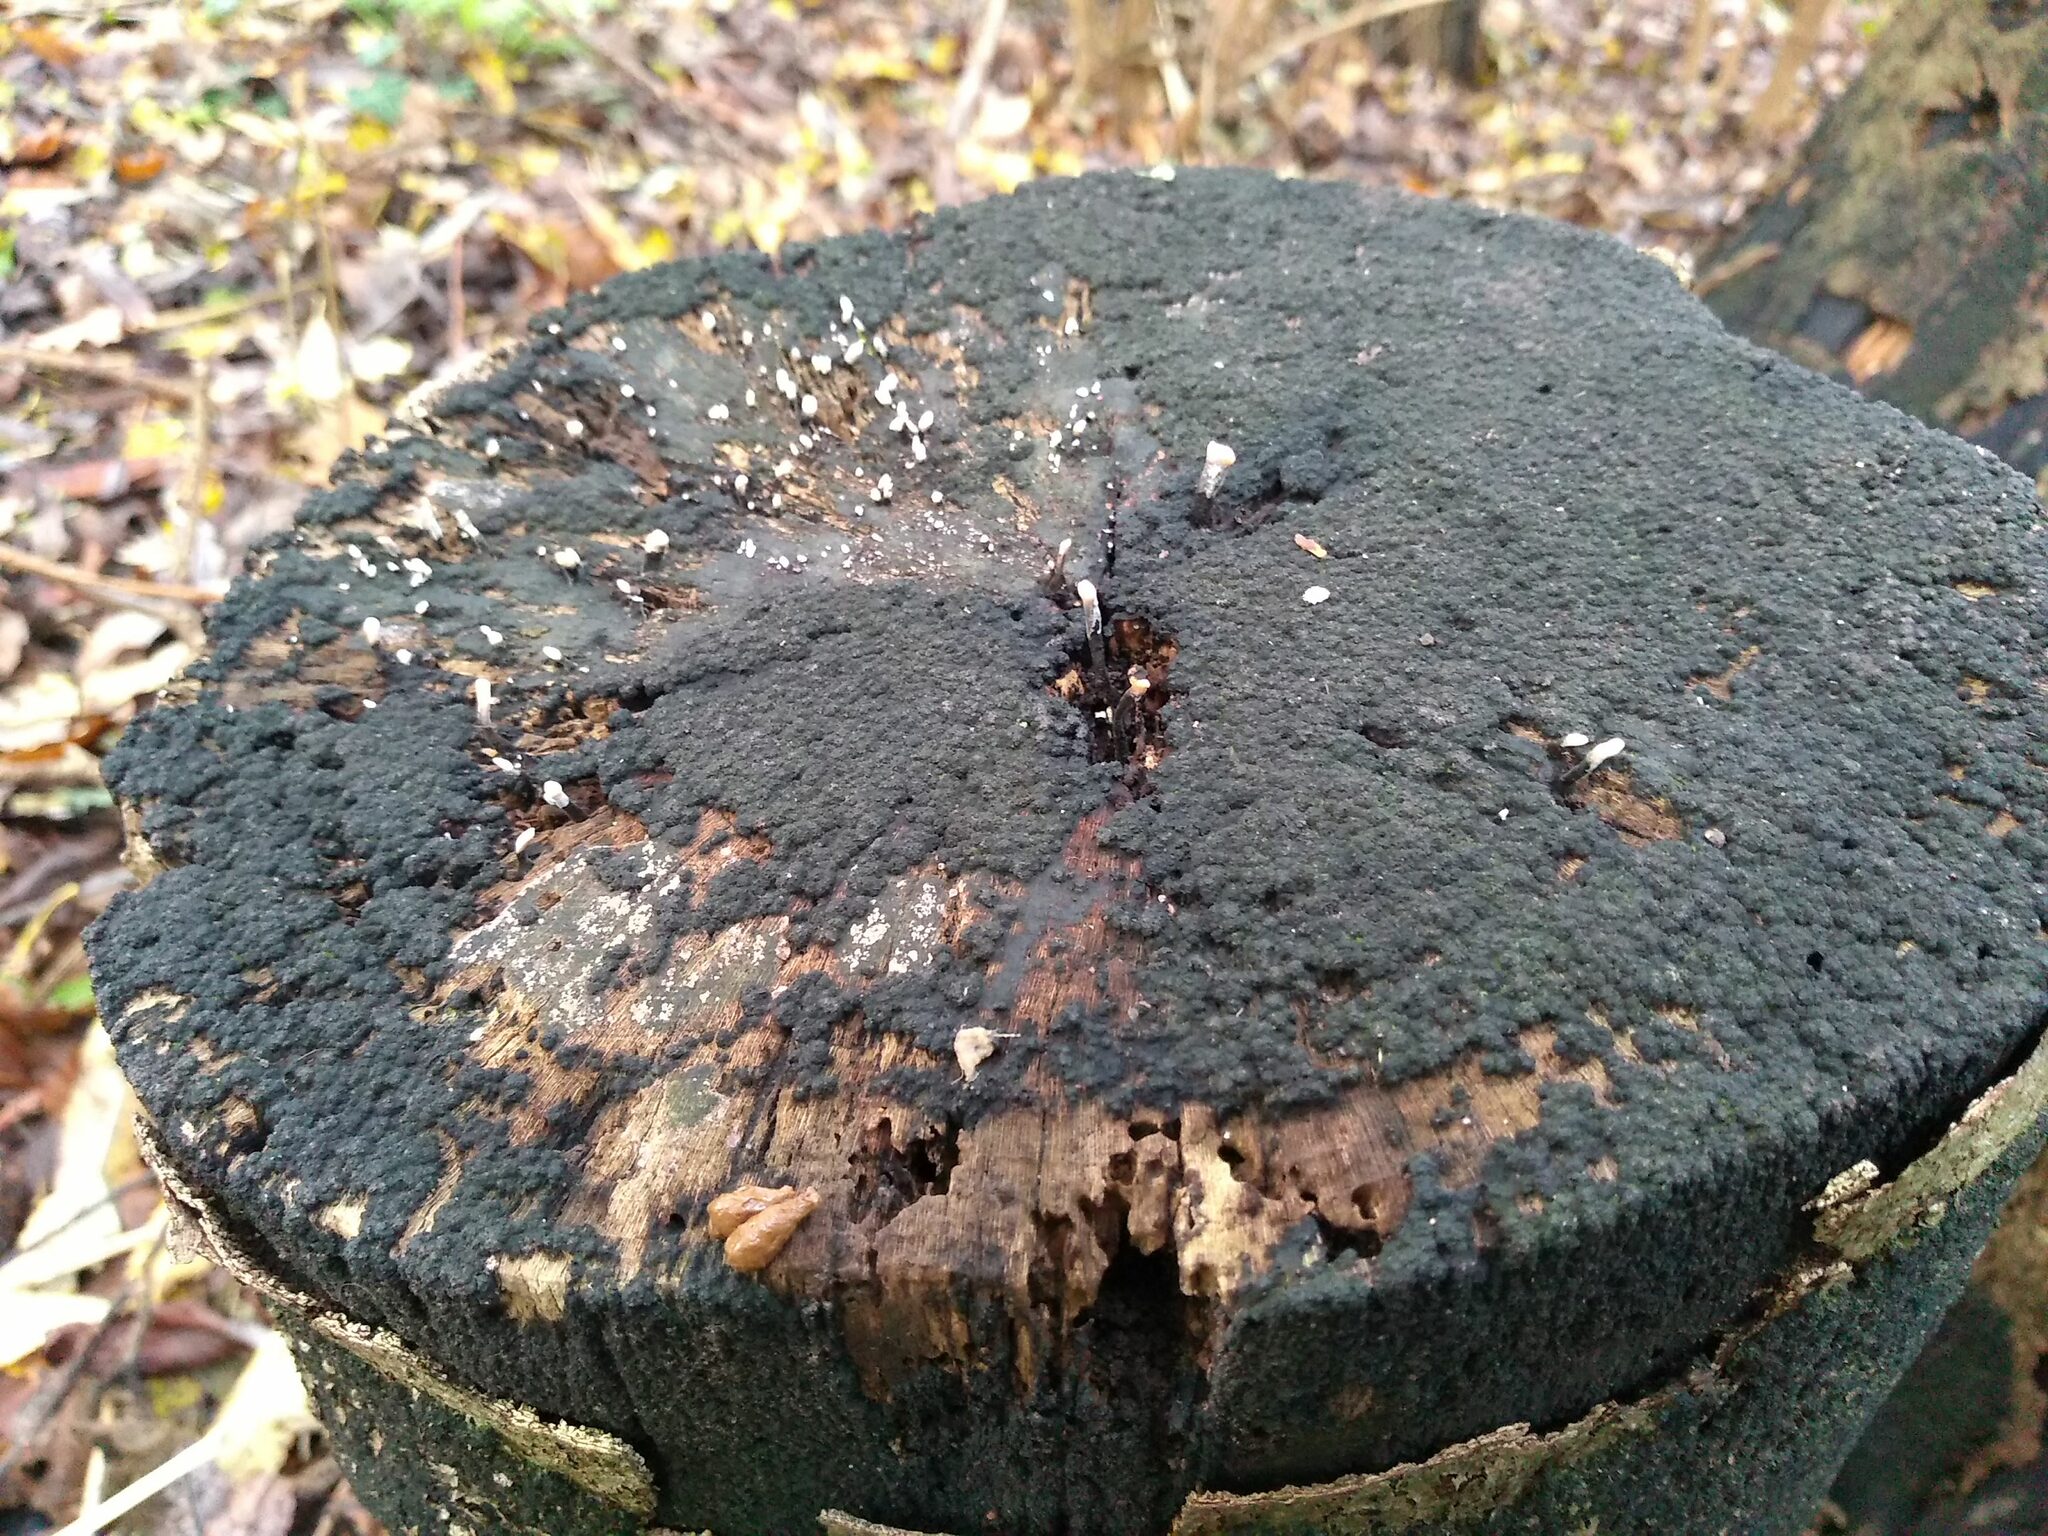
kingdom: Fungi
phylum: Ascomycota
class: Sordariomycetes
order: Xylariales
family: Xylariaceae
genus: Xylaria
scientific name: Xylaria hypoxylon
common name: Candle-snuff fungus
